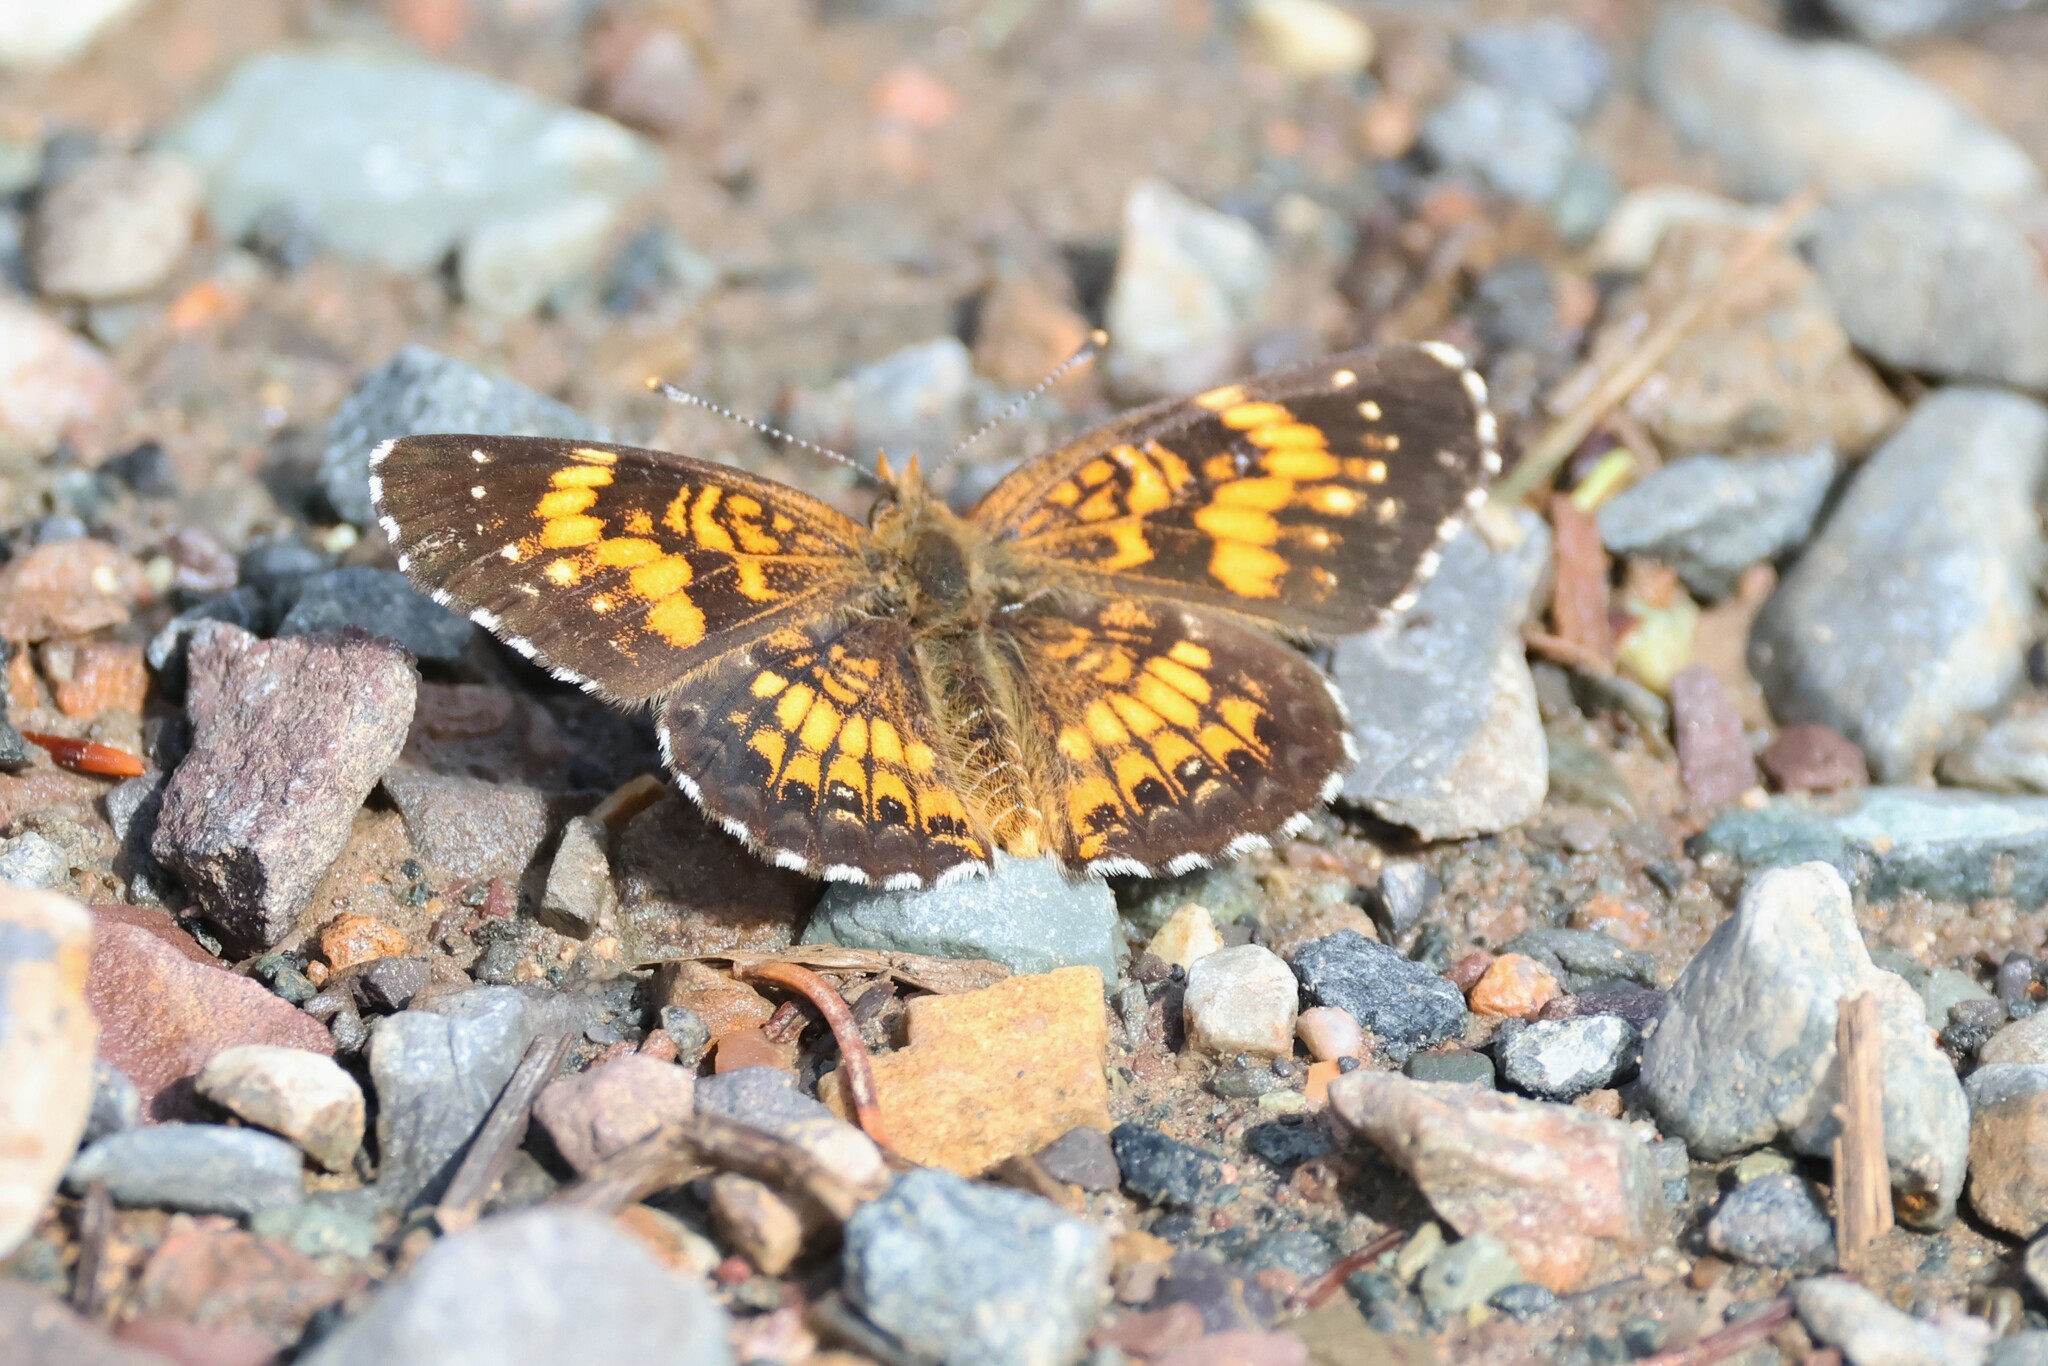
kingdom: Animalia
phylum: Arthropoda
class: Insecta
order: Lepidoptera
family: Nymphalidae
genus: Chlosyne
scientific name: Chlosyne harrisii
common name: Harris's checkerspot
